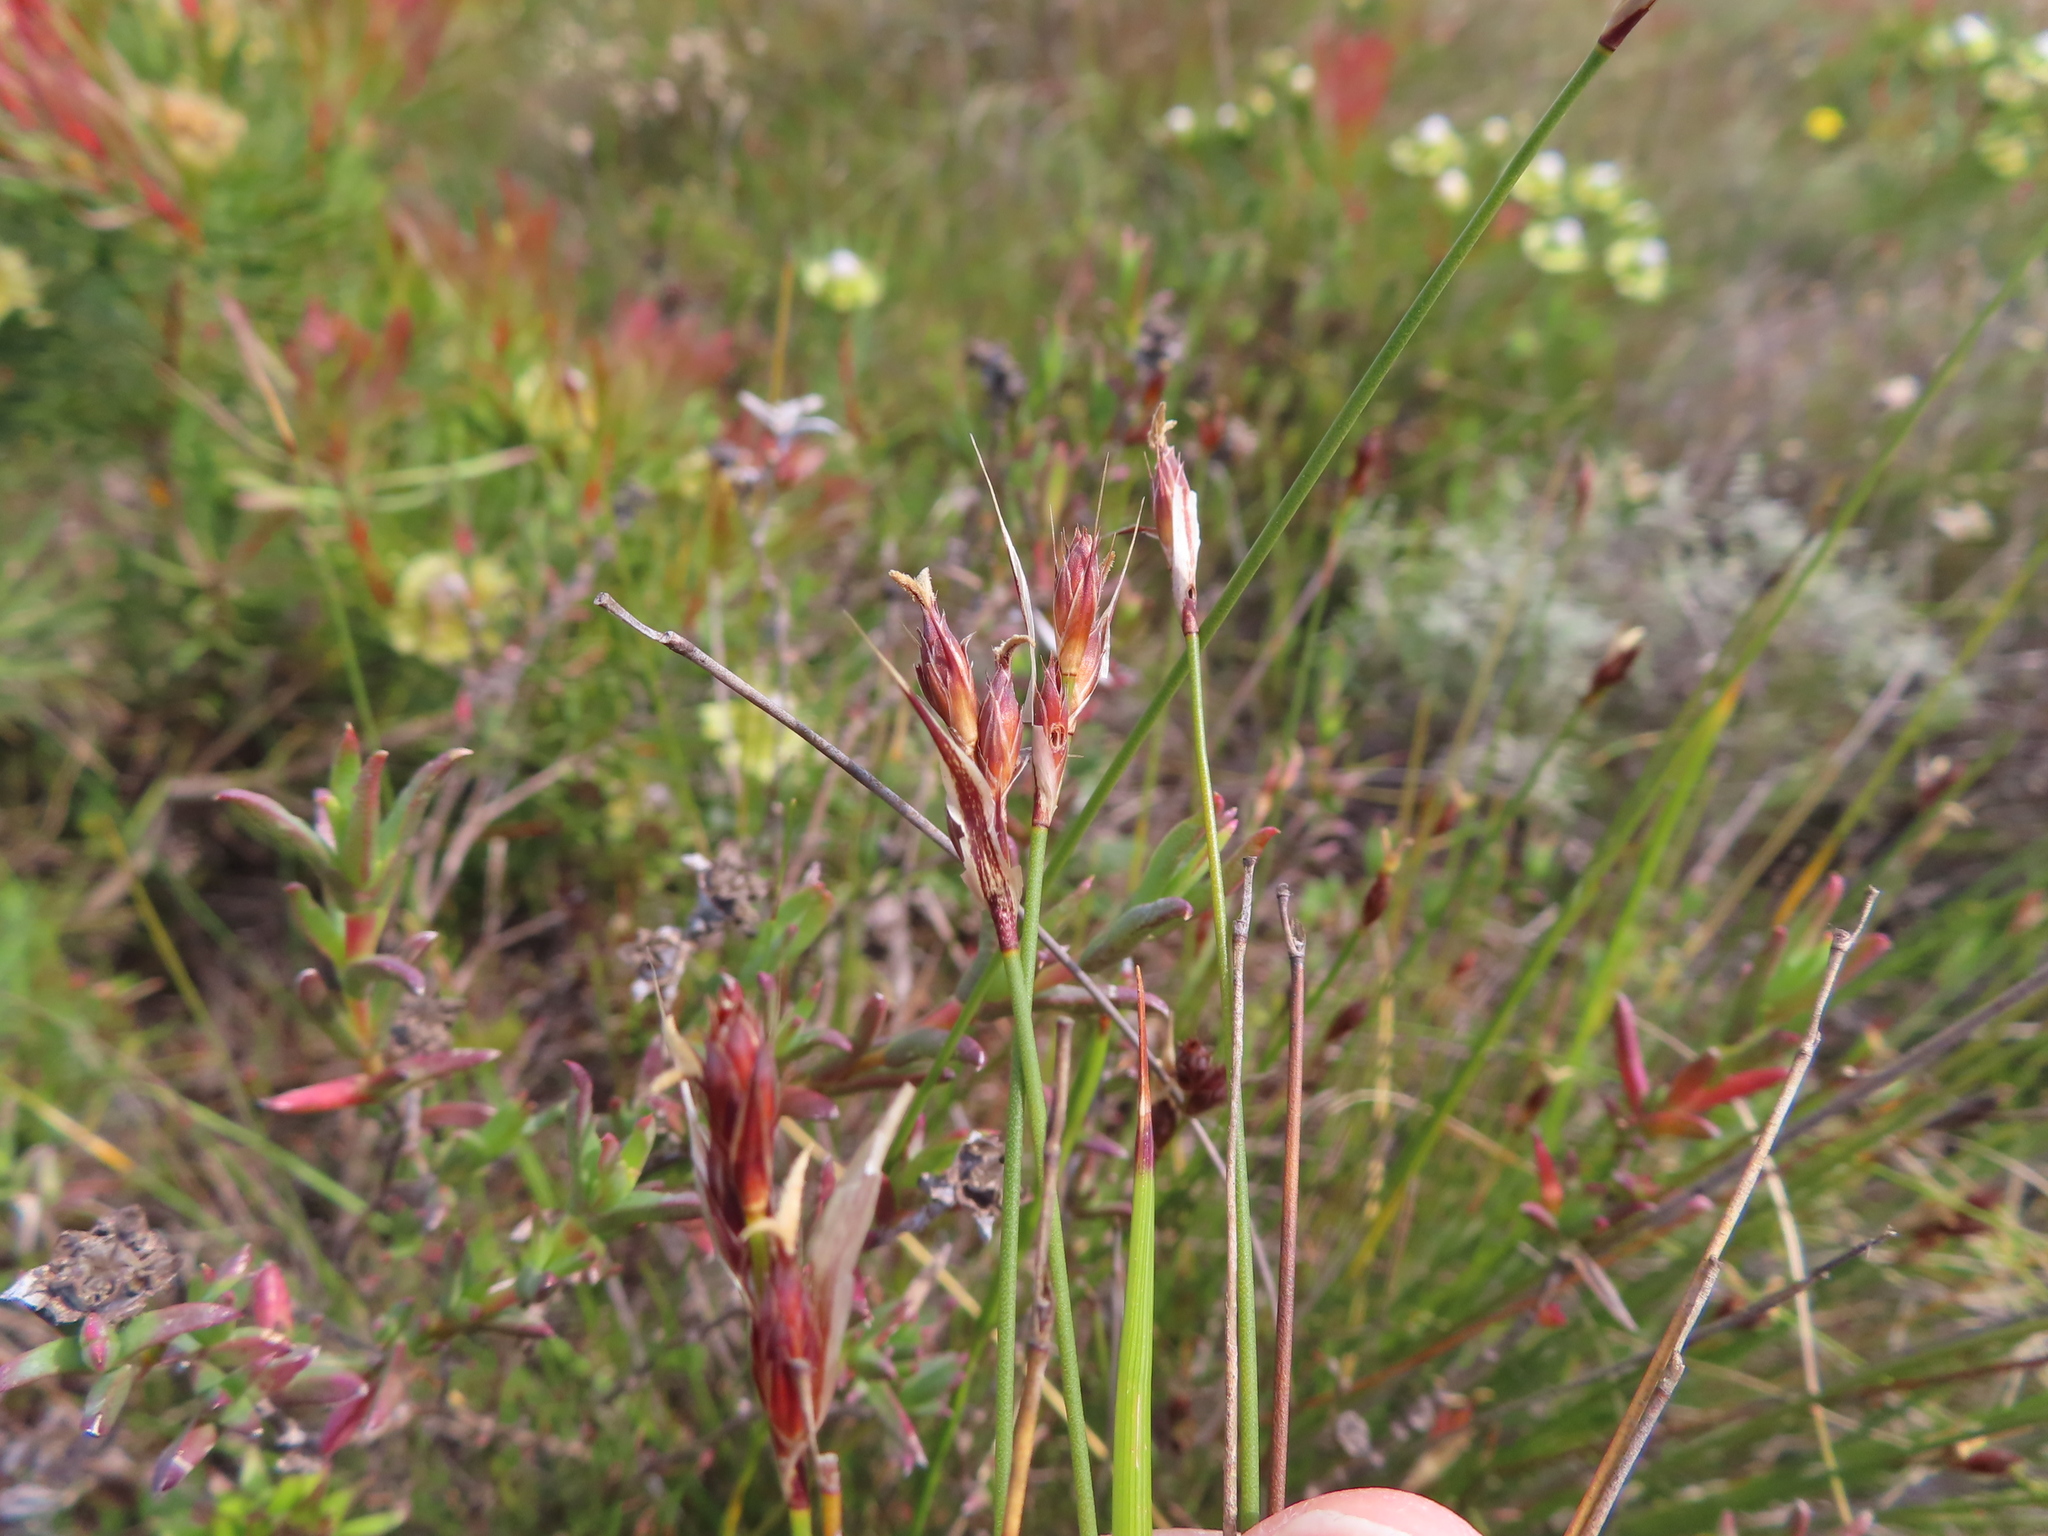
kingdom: Plantae
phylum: Tracheophyta
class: Liliopsida
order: Poales
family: Restionaceae
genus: Hypodiscus
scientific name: Hypodiscus rugosus
